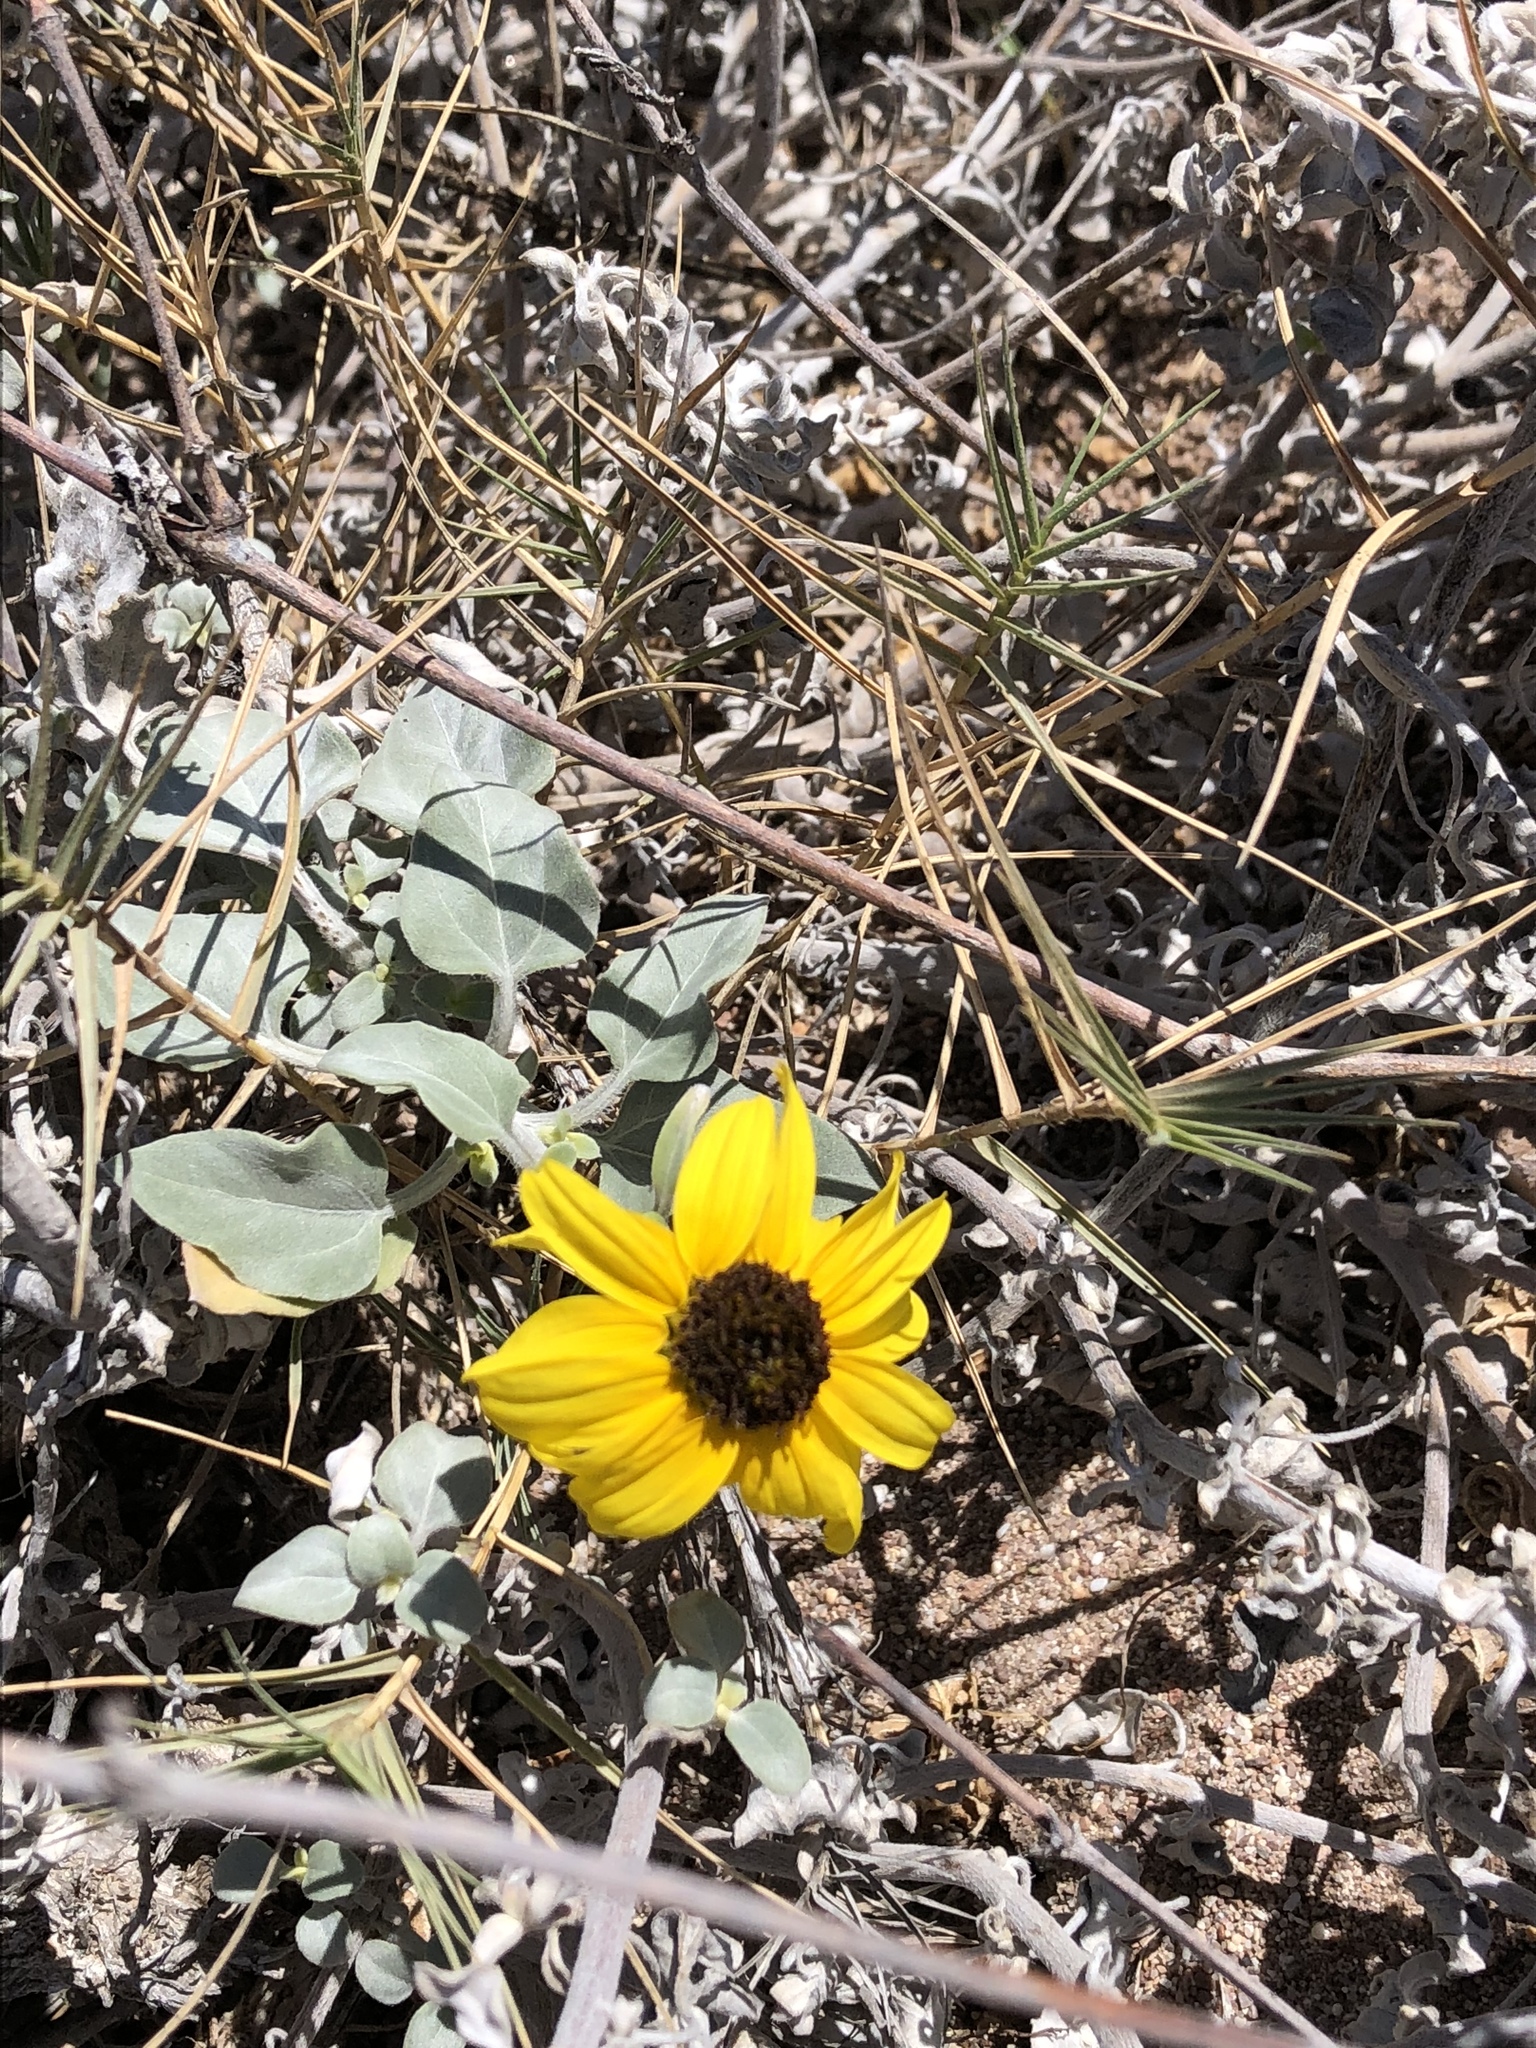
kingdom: Plantae
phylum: Tracheophyta
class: Magnoliopsida
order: Asterales
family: Asteraceae
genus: Helianthus
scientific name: Helianthus niveus
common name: Snowy sunflower
